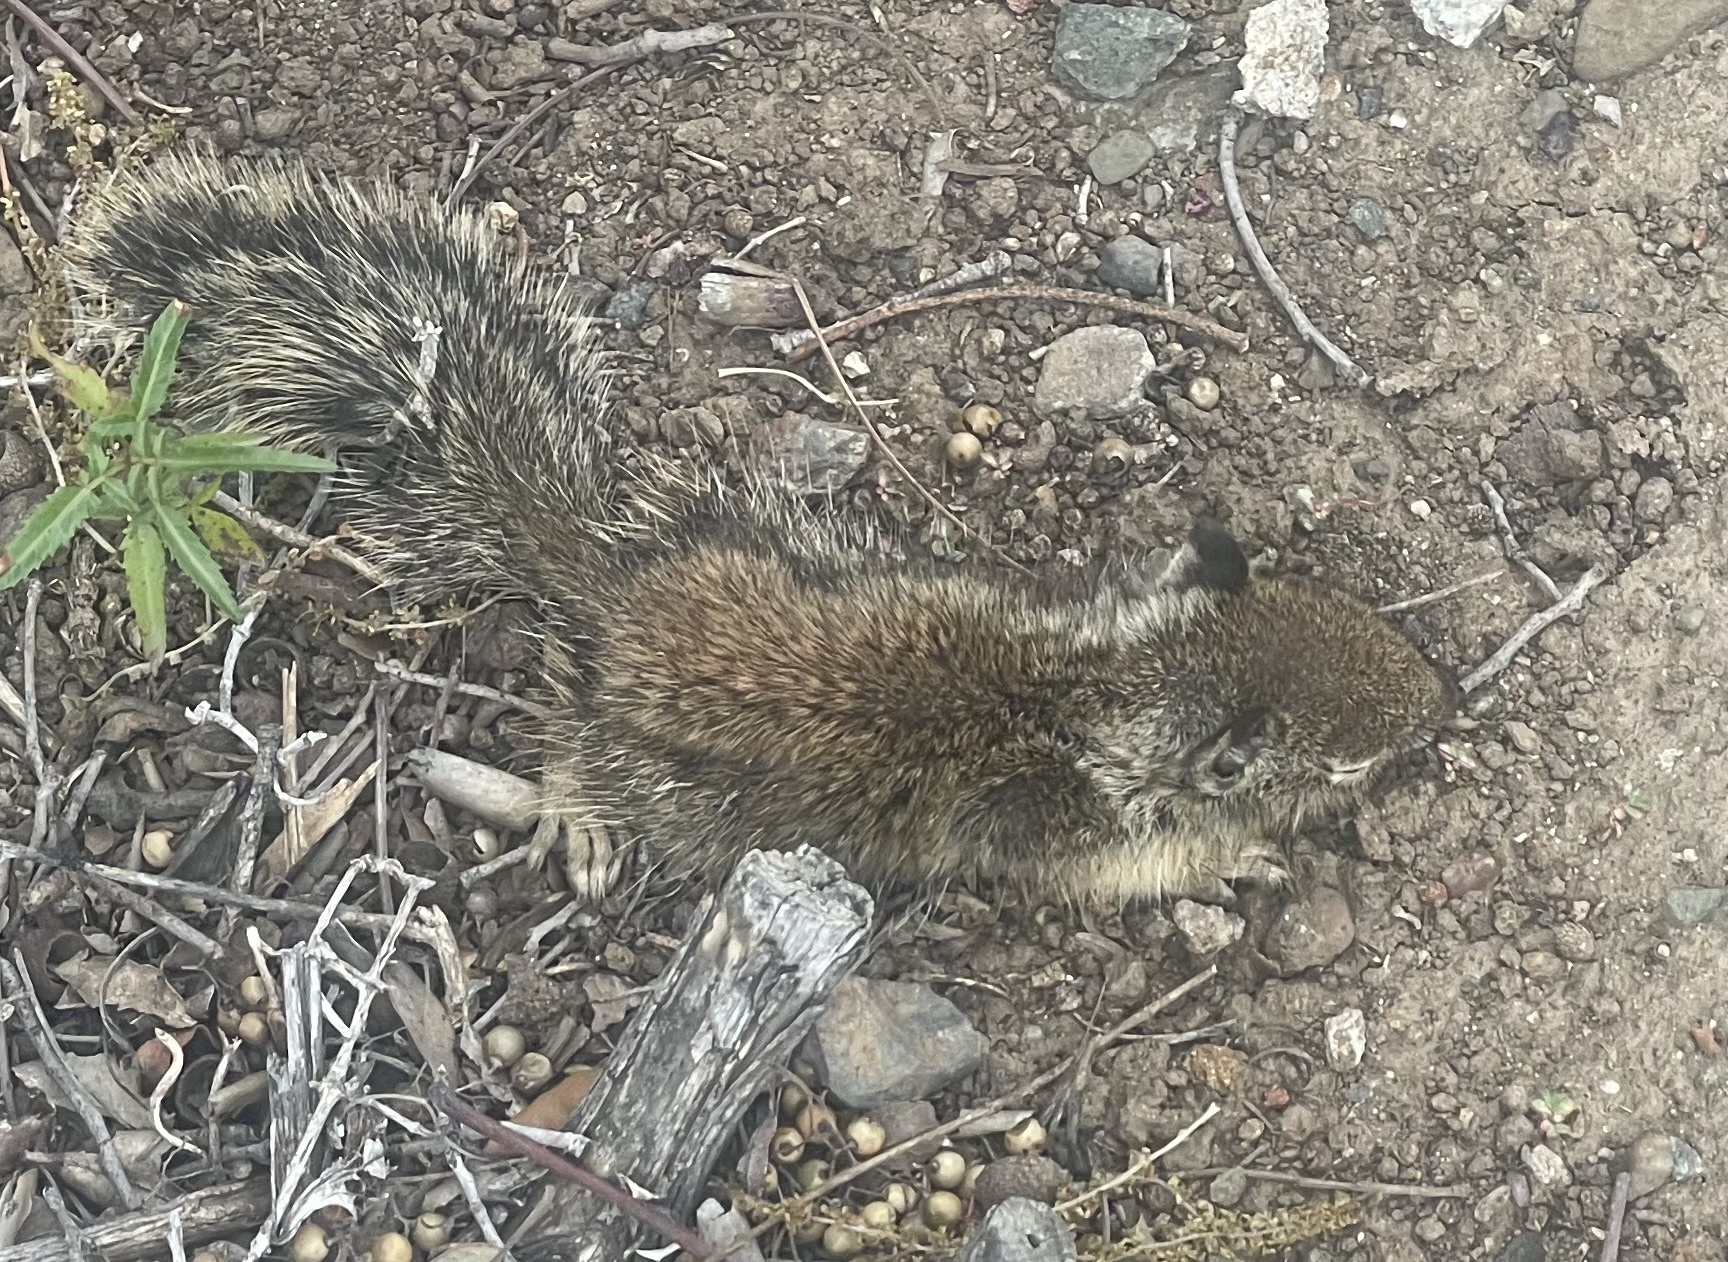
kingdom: Animalia
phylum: Chordata
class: Mammalia
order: Rodentia
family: Sciuridae
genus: Otospermophilus
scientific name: Otospermophilus beecheyi
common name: California ground squirrel
